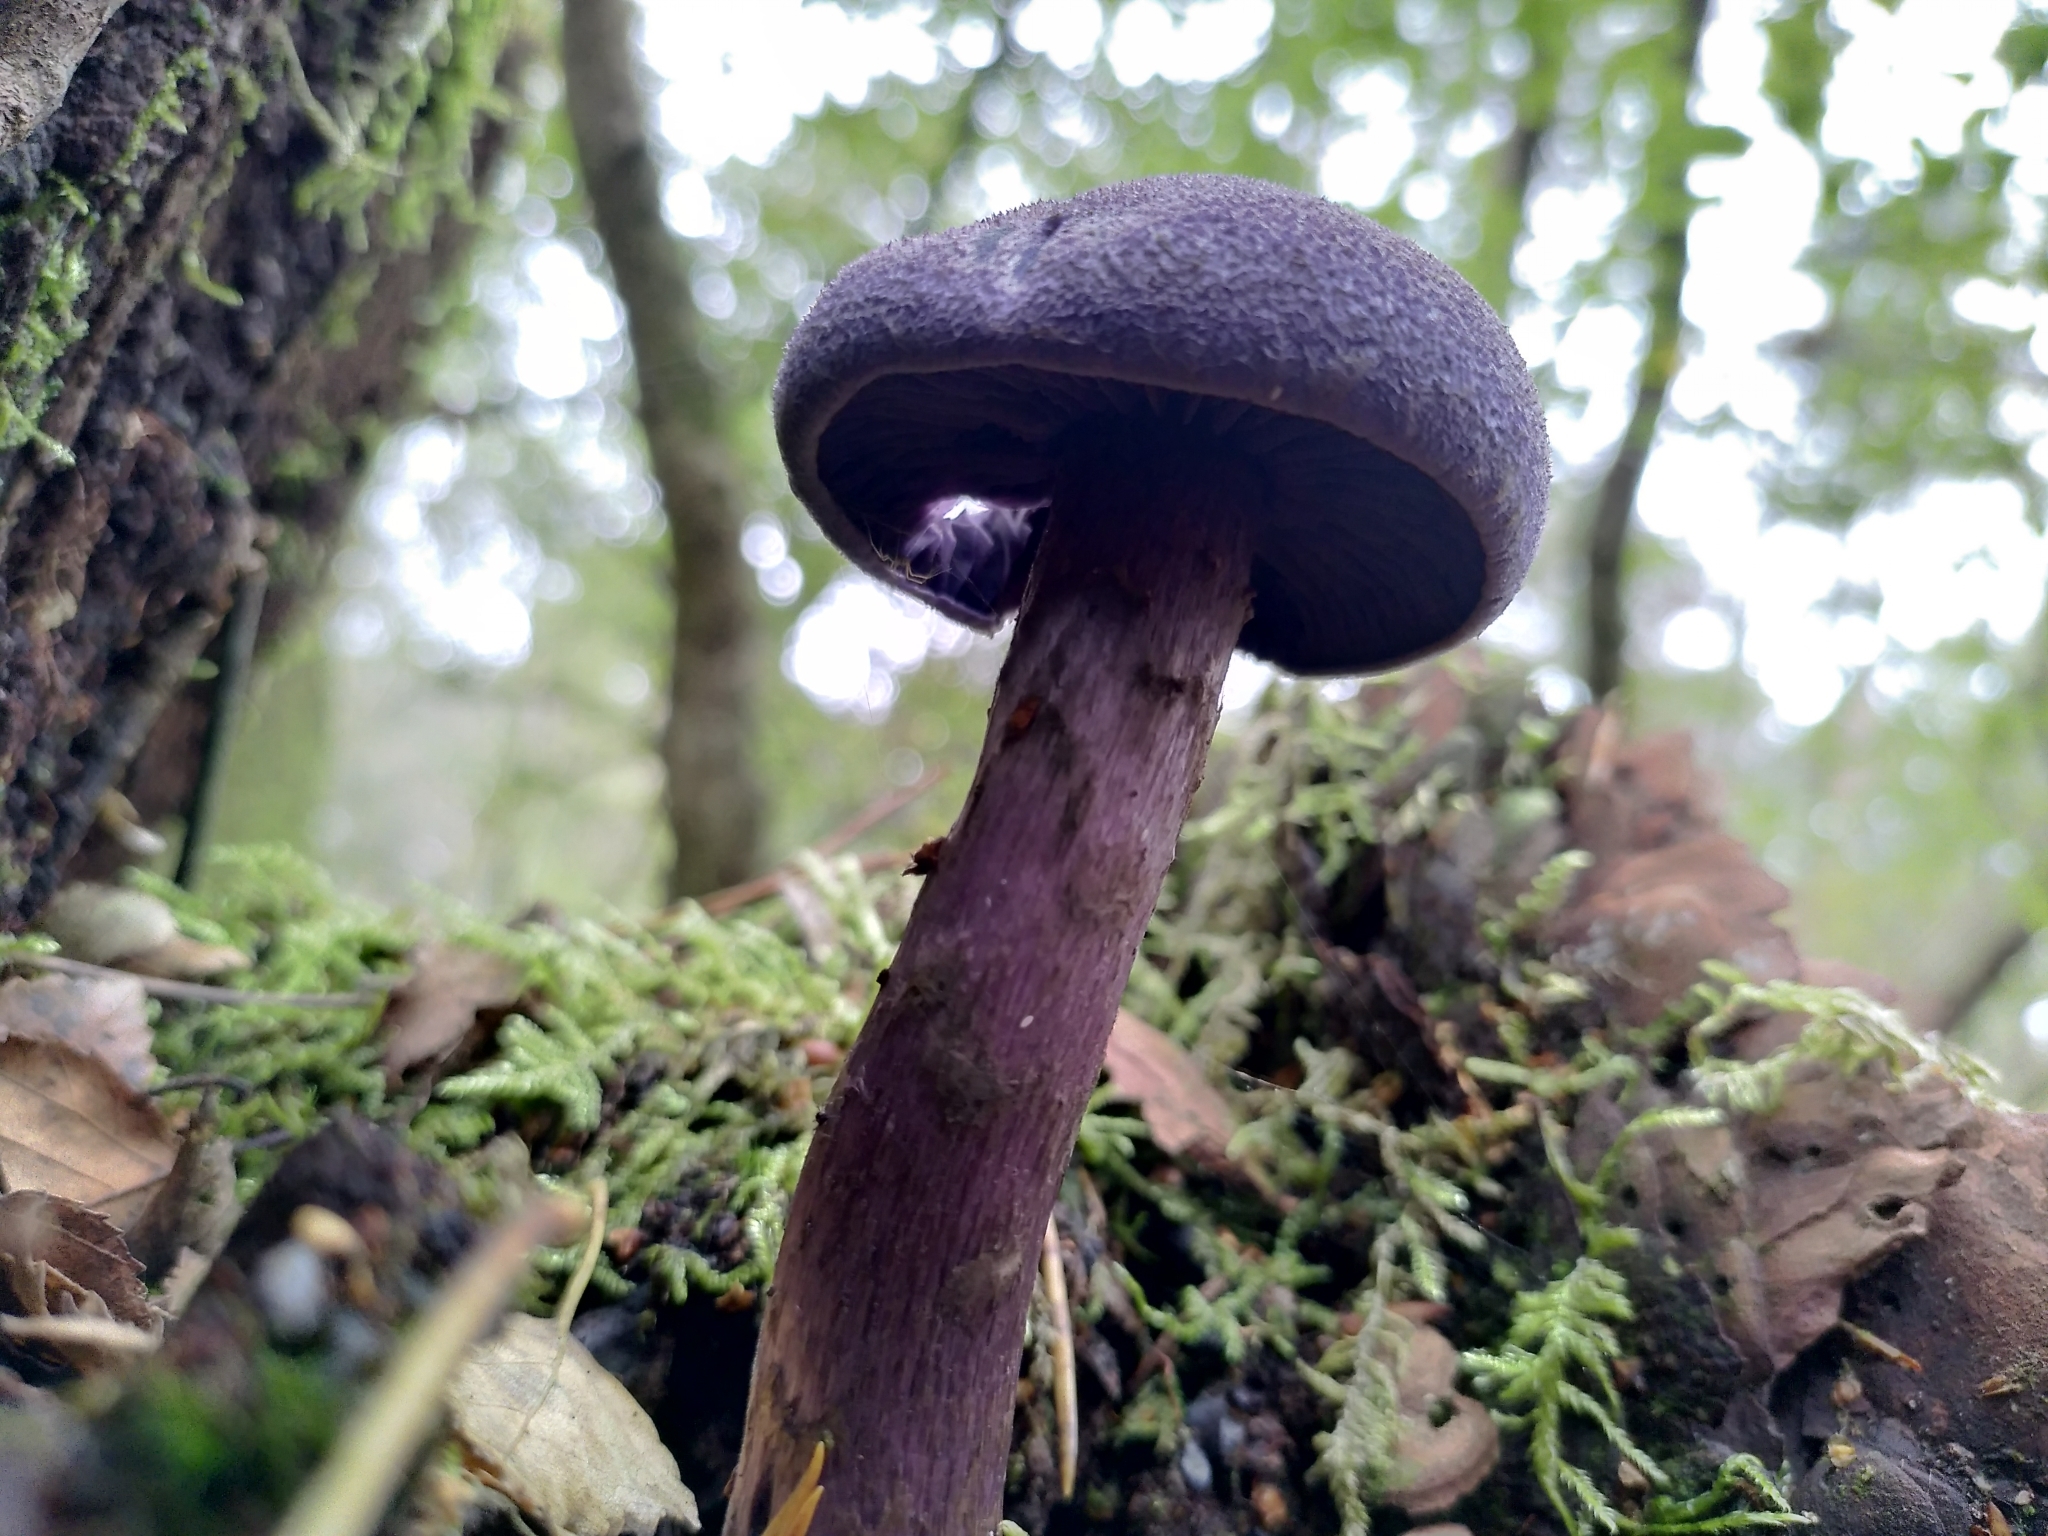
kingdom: Fungi
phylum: Basidiomycota
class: Agaricomycetes
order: Agaricales
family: Cortinariaceae
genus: Cortinarius
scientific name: Cortinarius violaceus
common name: Violet webcap
